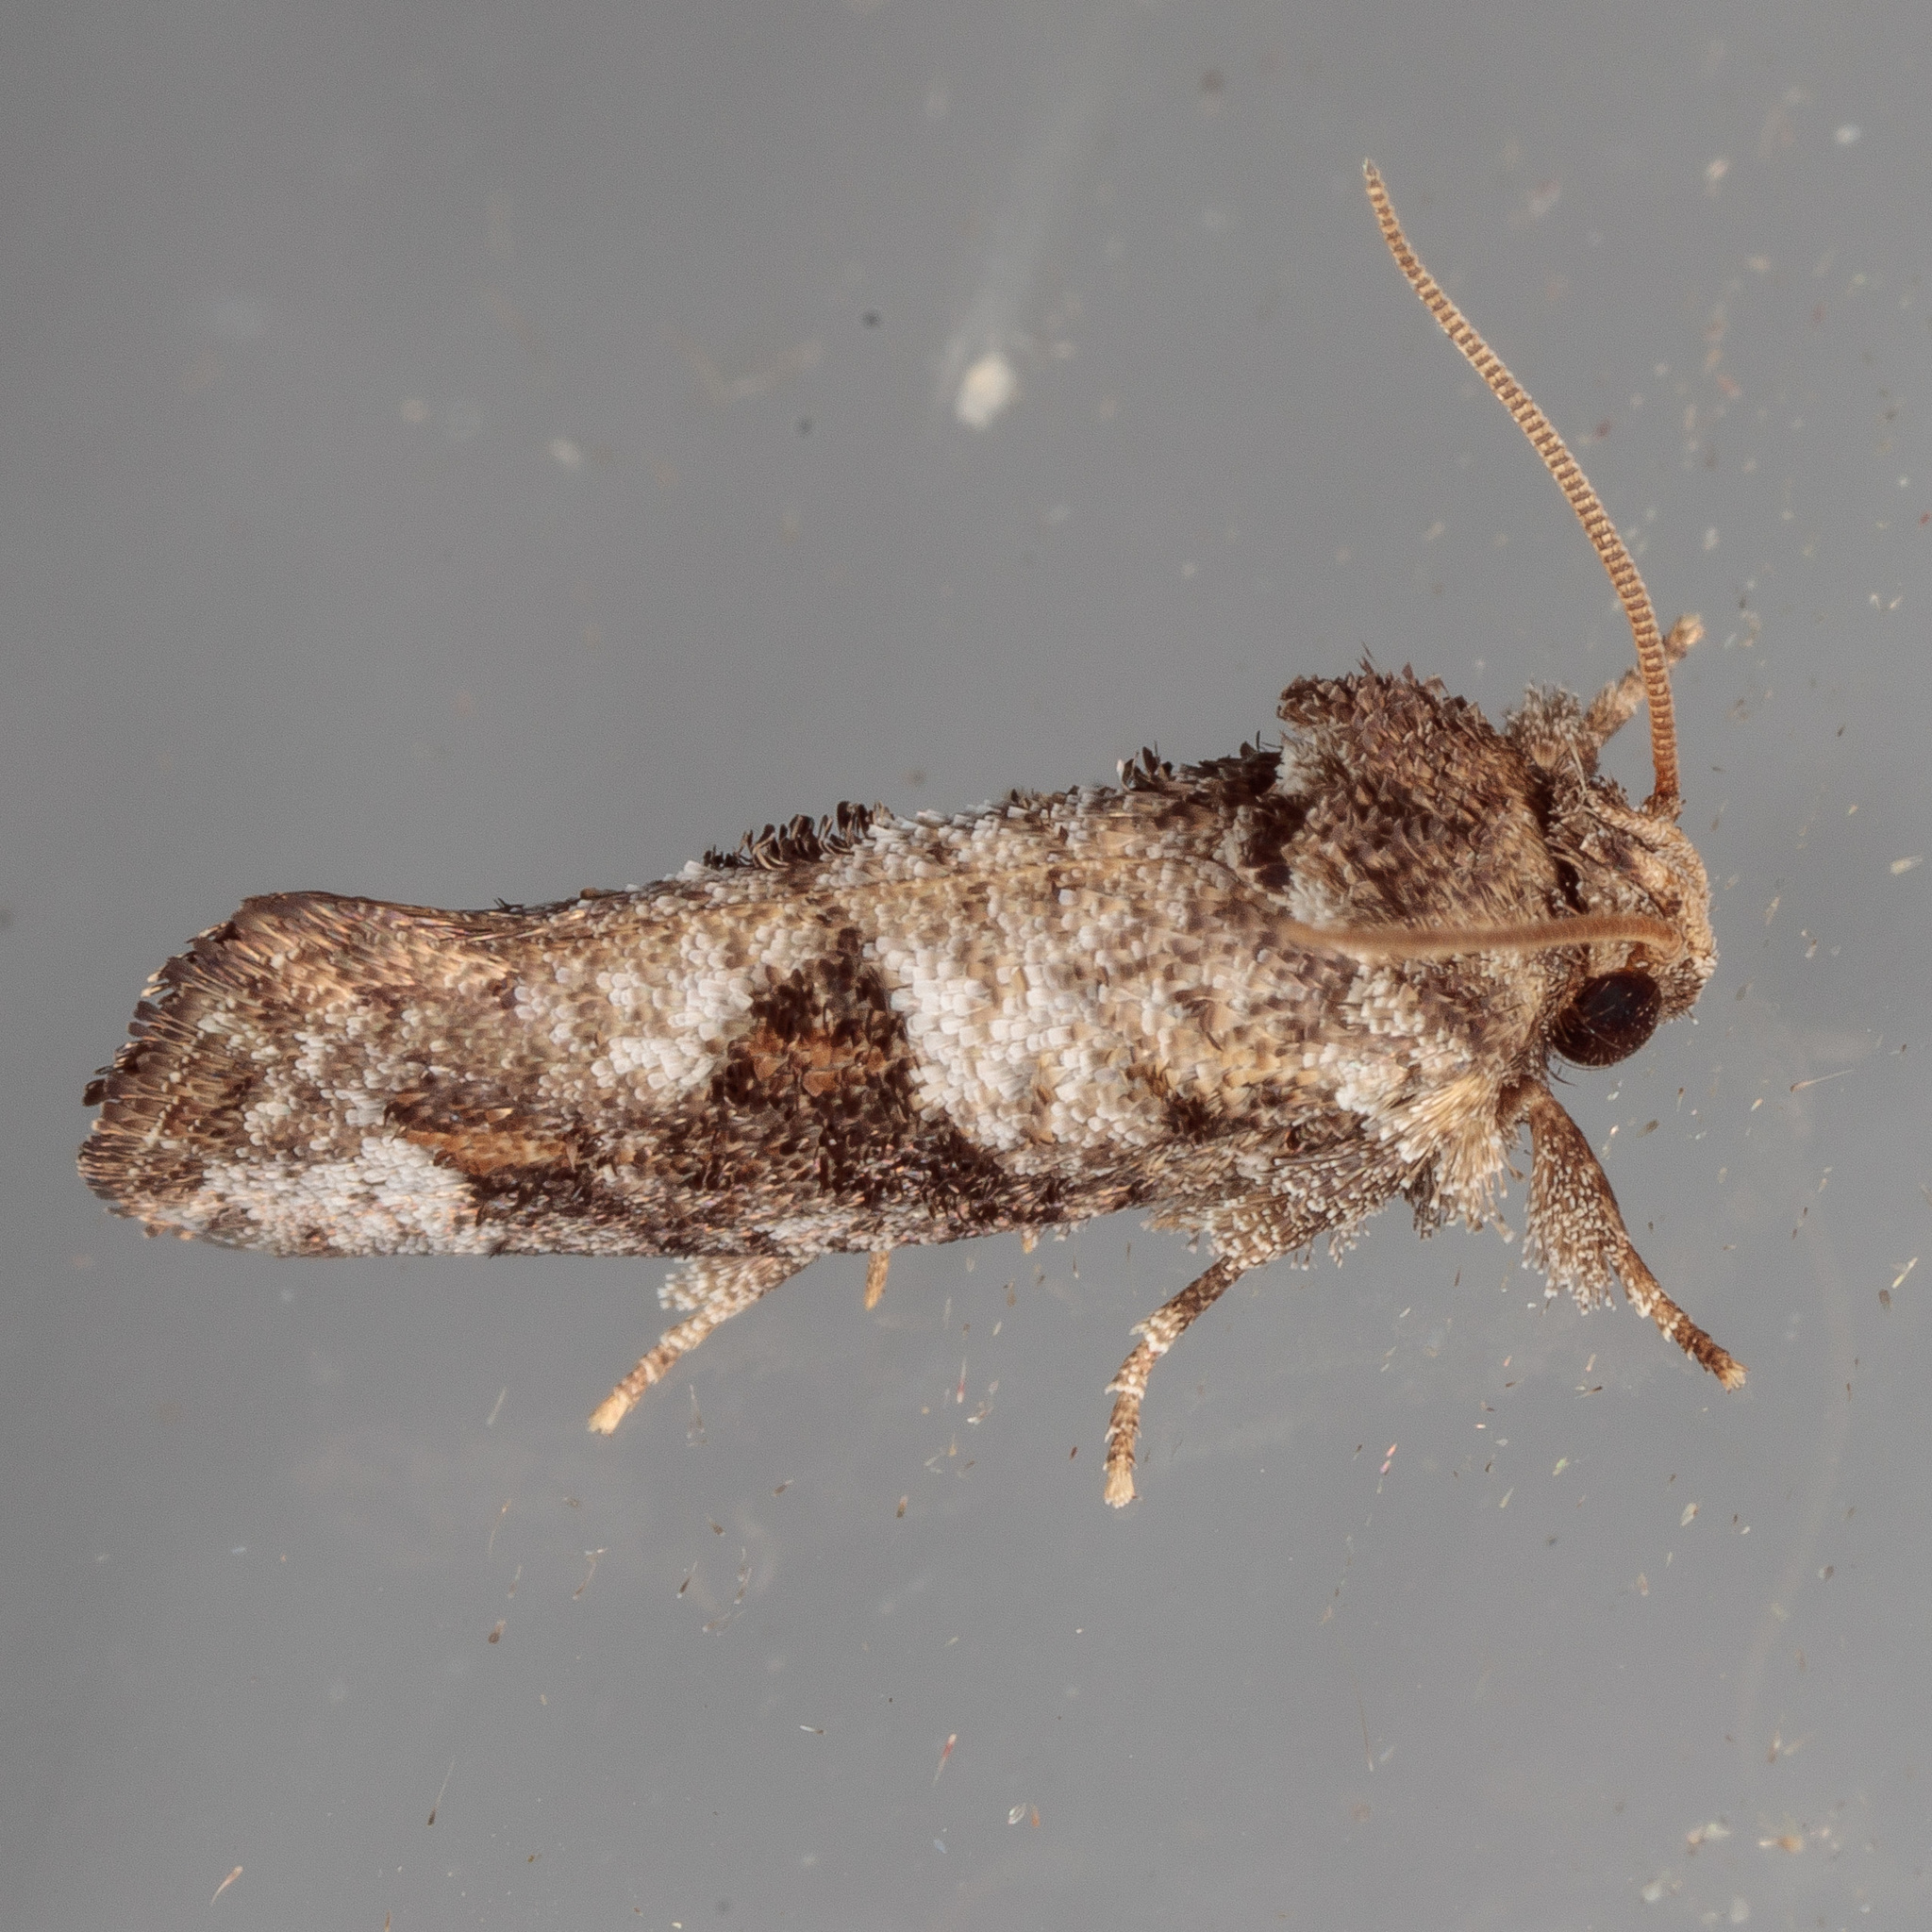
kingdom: Animalia
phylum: Arthropoda
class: Insecta
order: Lepidoptera
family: Tineidae
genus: Acrolophus
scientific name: Acrolophus piger
